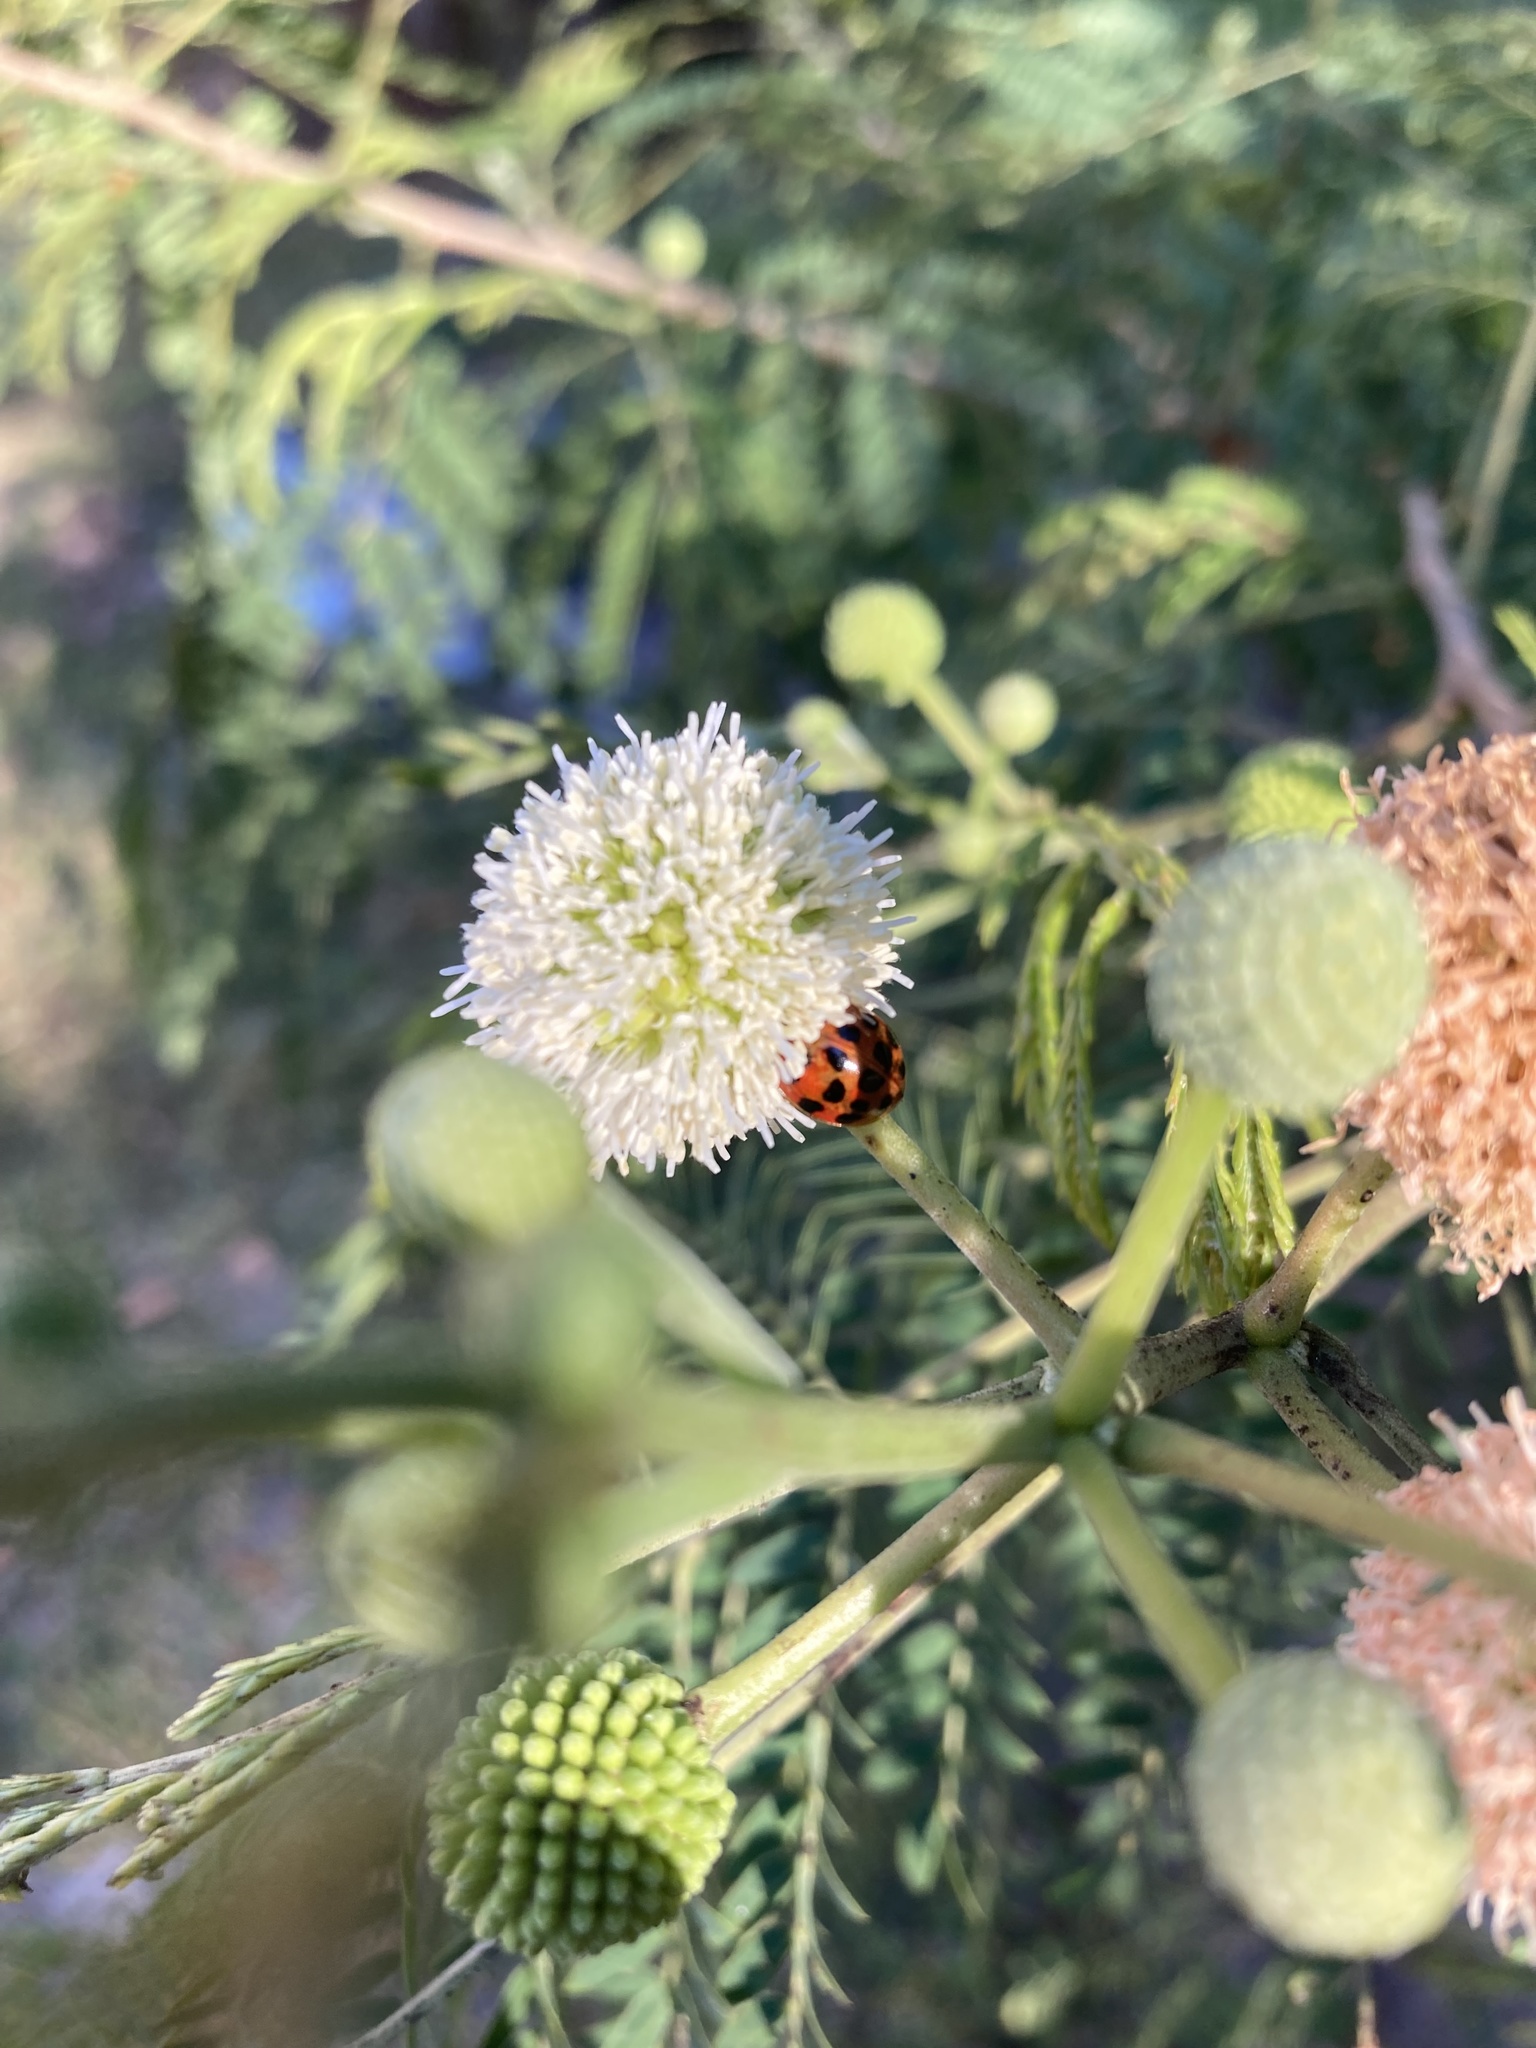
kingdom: Animalia
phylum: Arthropoda
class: Insecta
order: Coleoptera
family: Coccinellidae
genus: Harmonia
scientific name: Harmonia axyridis
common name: Harlequin ladybird
